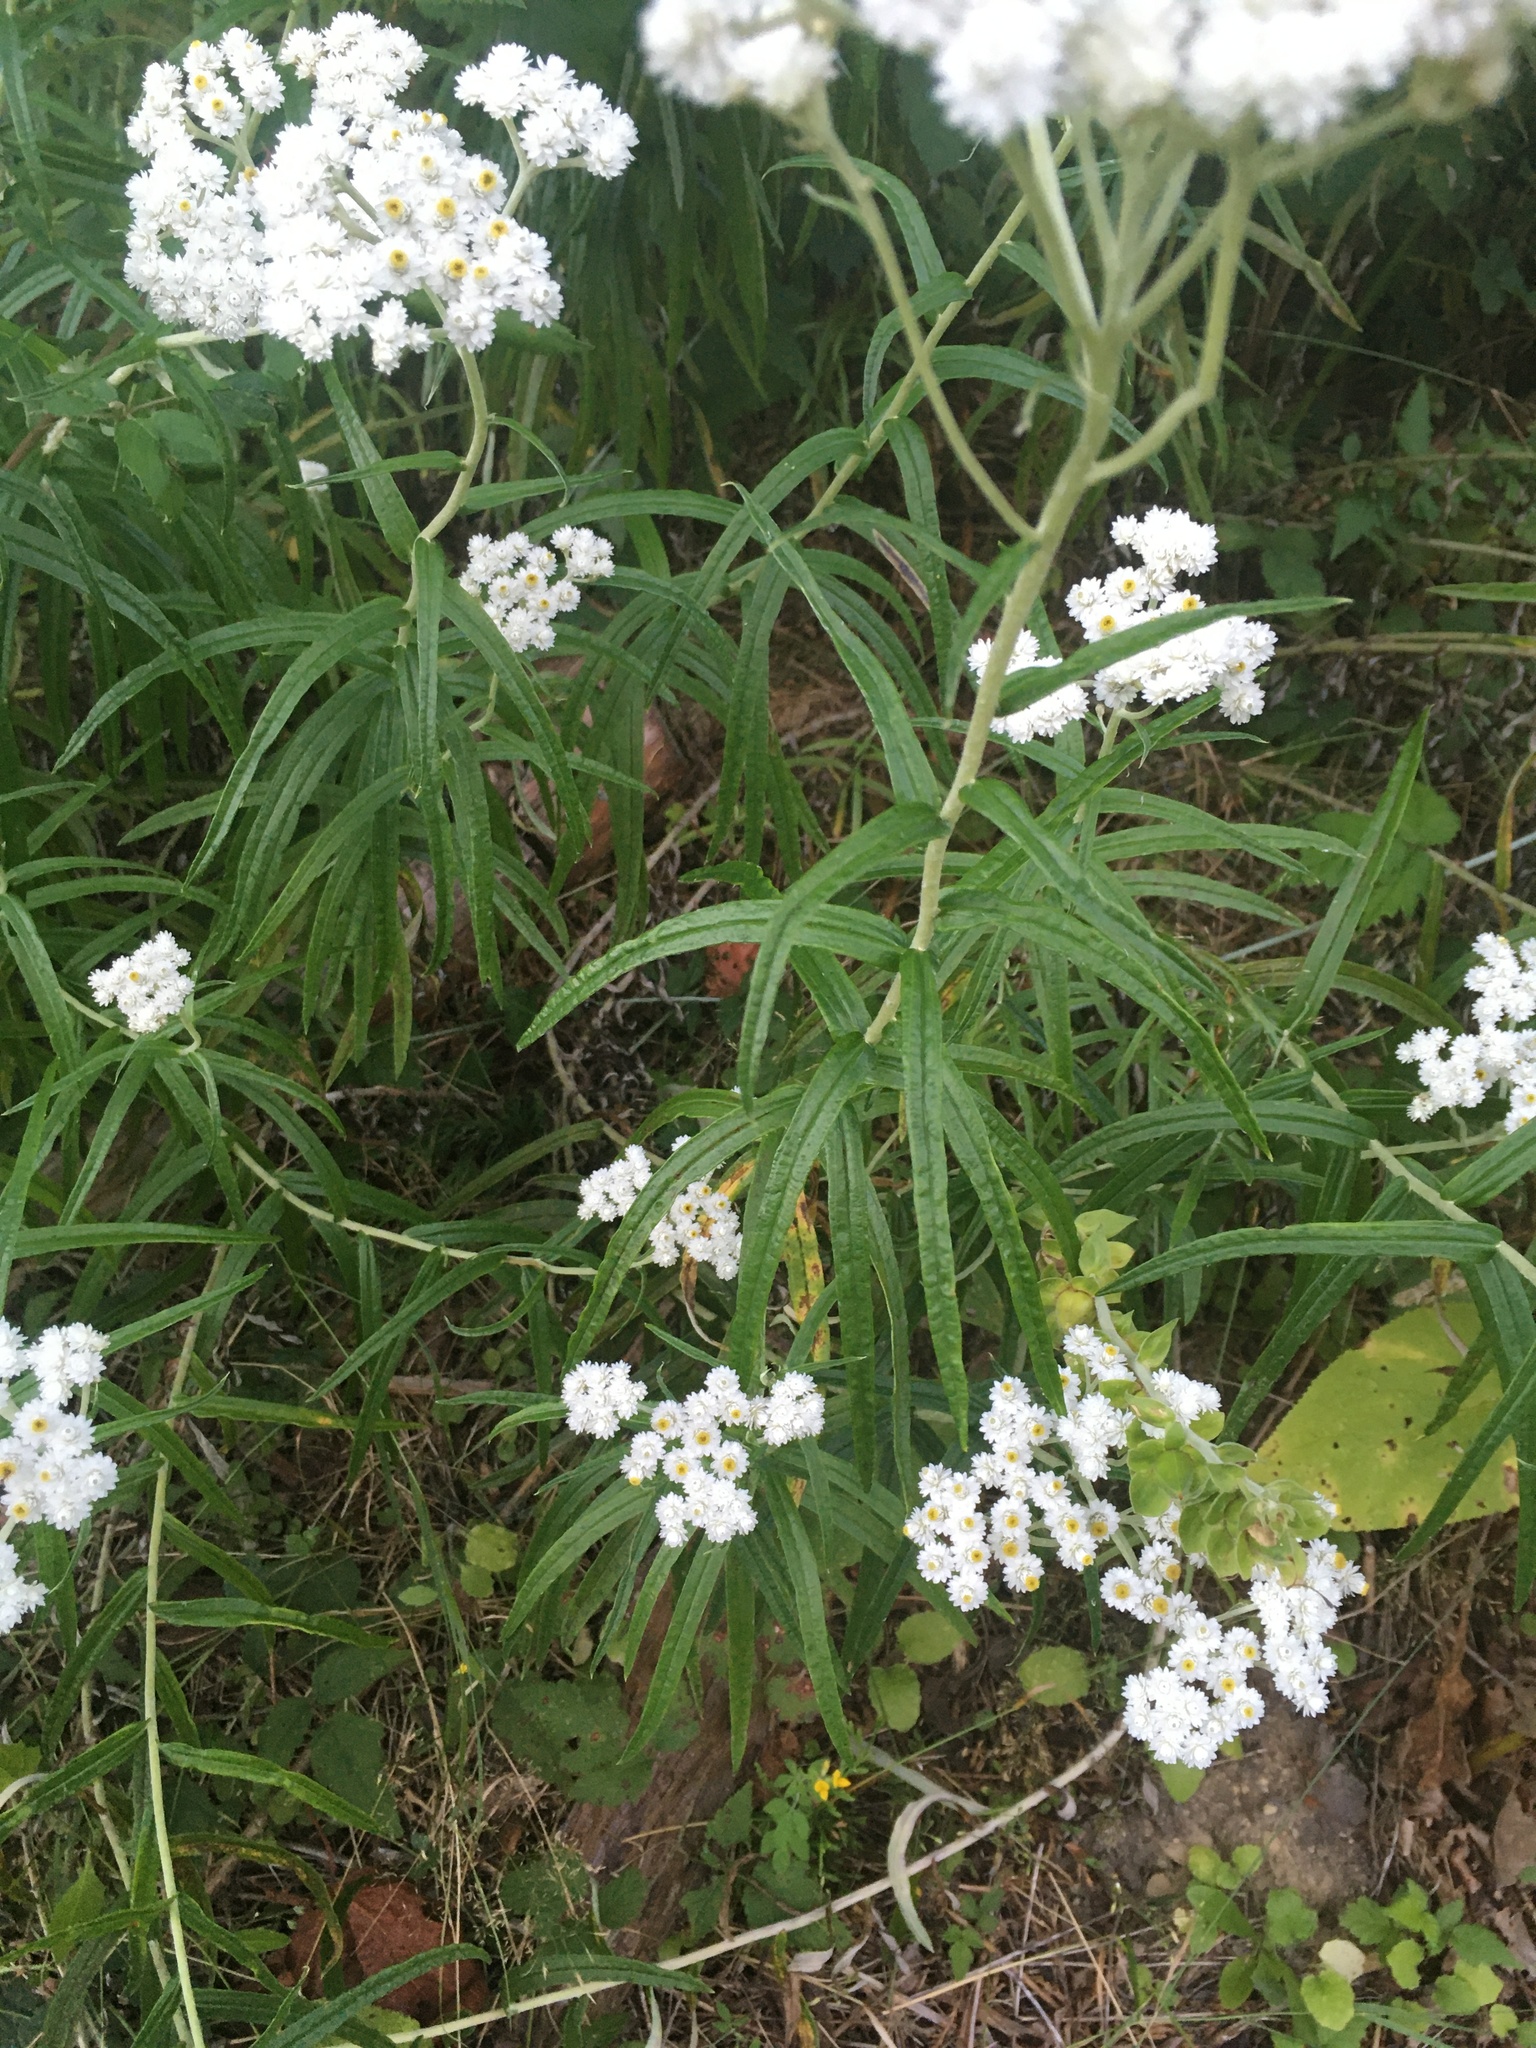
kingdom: Plantae
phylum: Tracheophyta
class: Magnoliopsida
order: Asterales
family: Asteraceae
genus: Anaphalis
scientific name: Anaphalis margaritacea
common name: Pearly everlasting
